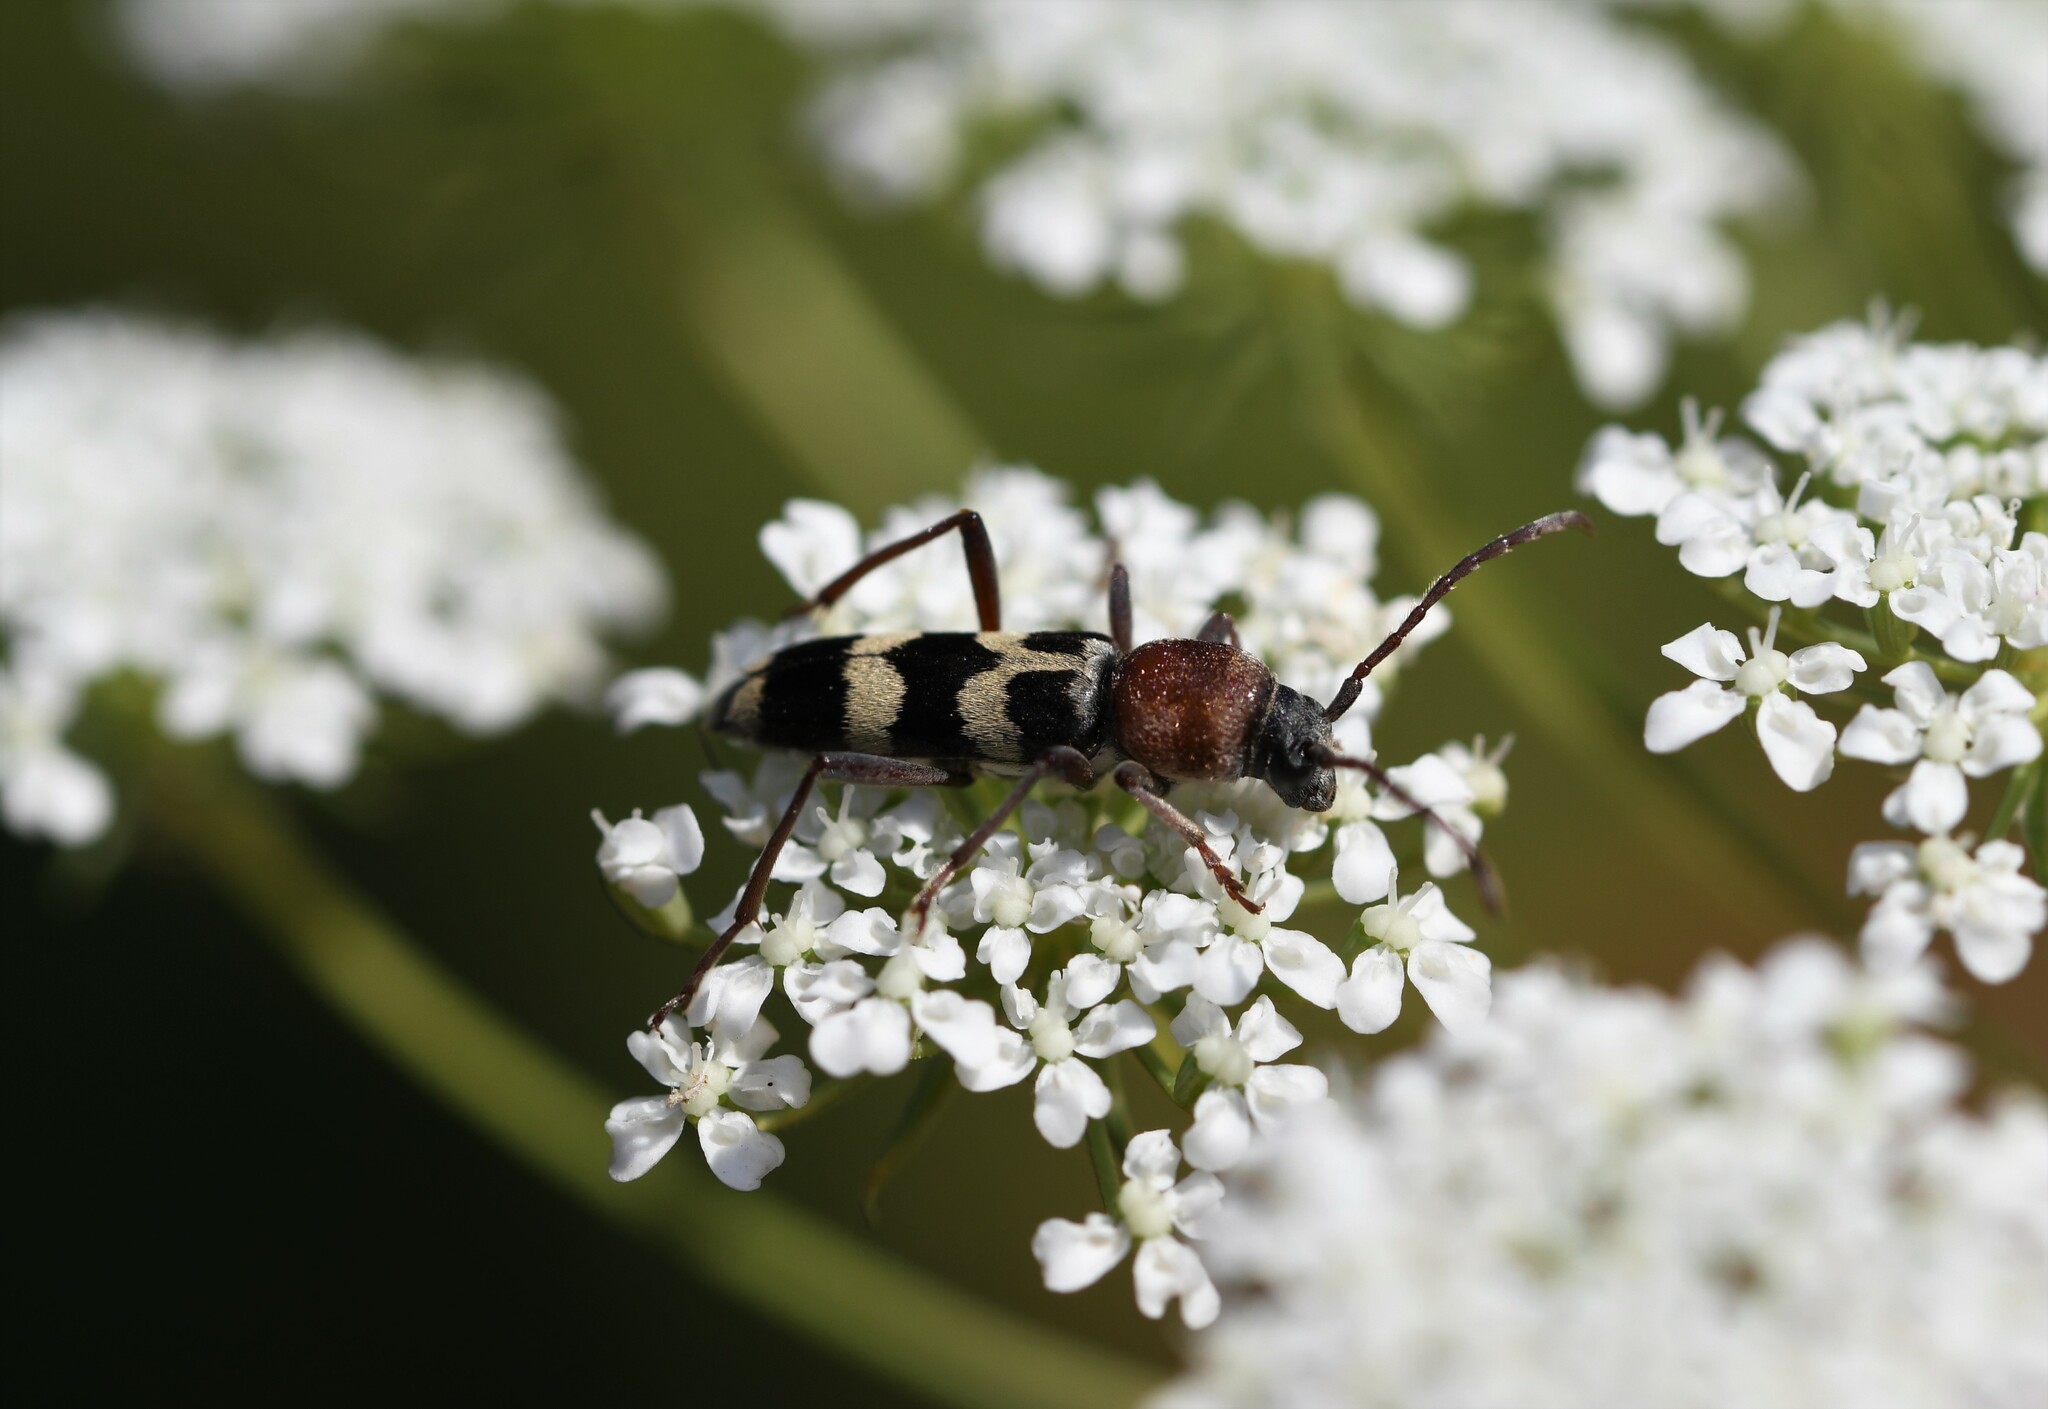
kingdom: Animalia
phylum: Arthropoda
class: Insecta
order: Coleoptera
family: Cerambycidae
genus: Chlorophorus
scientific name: Chlorophorus trifasciatus
